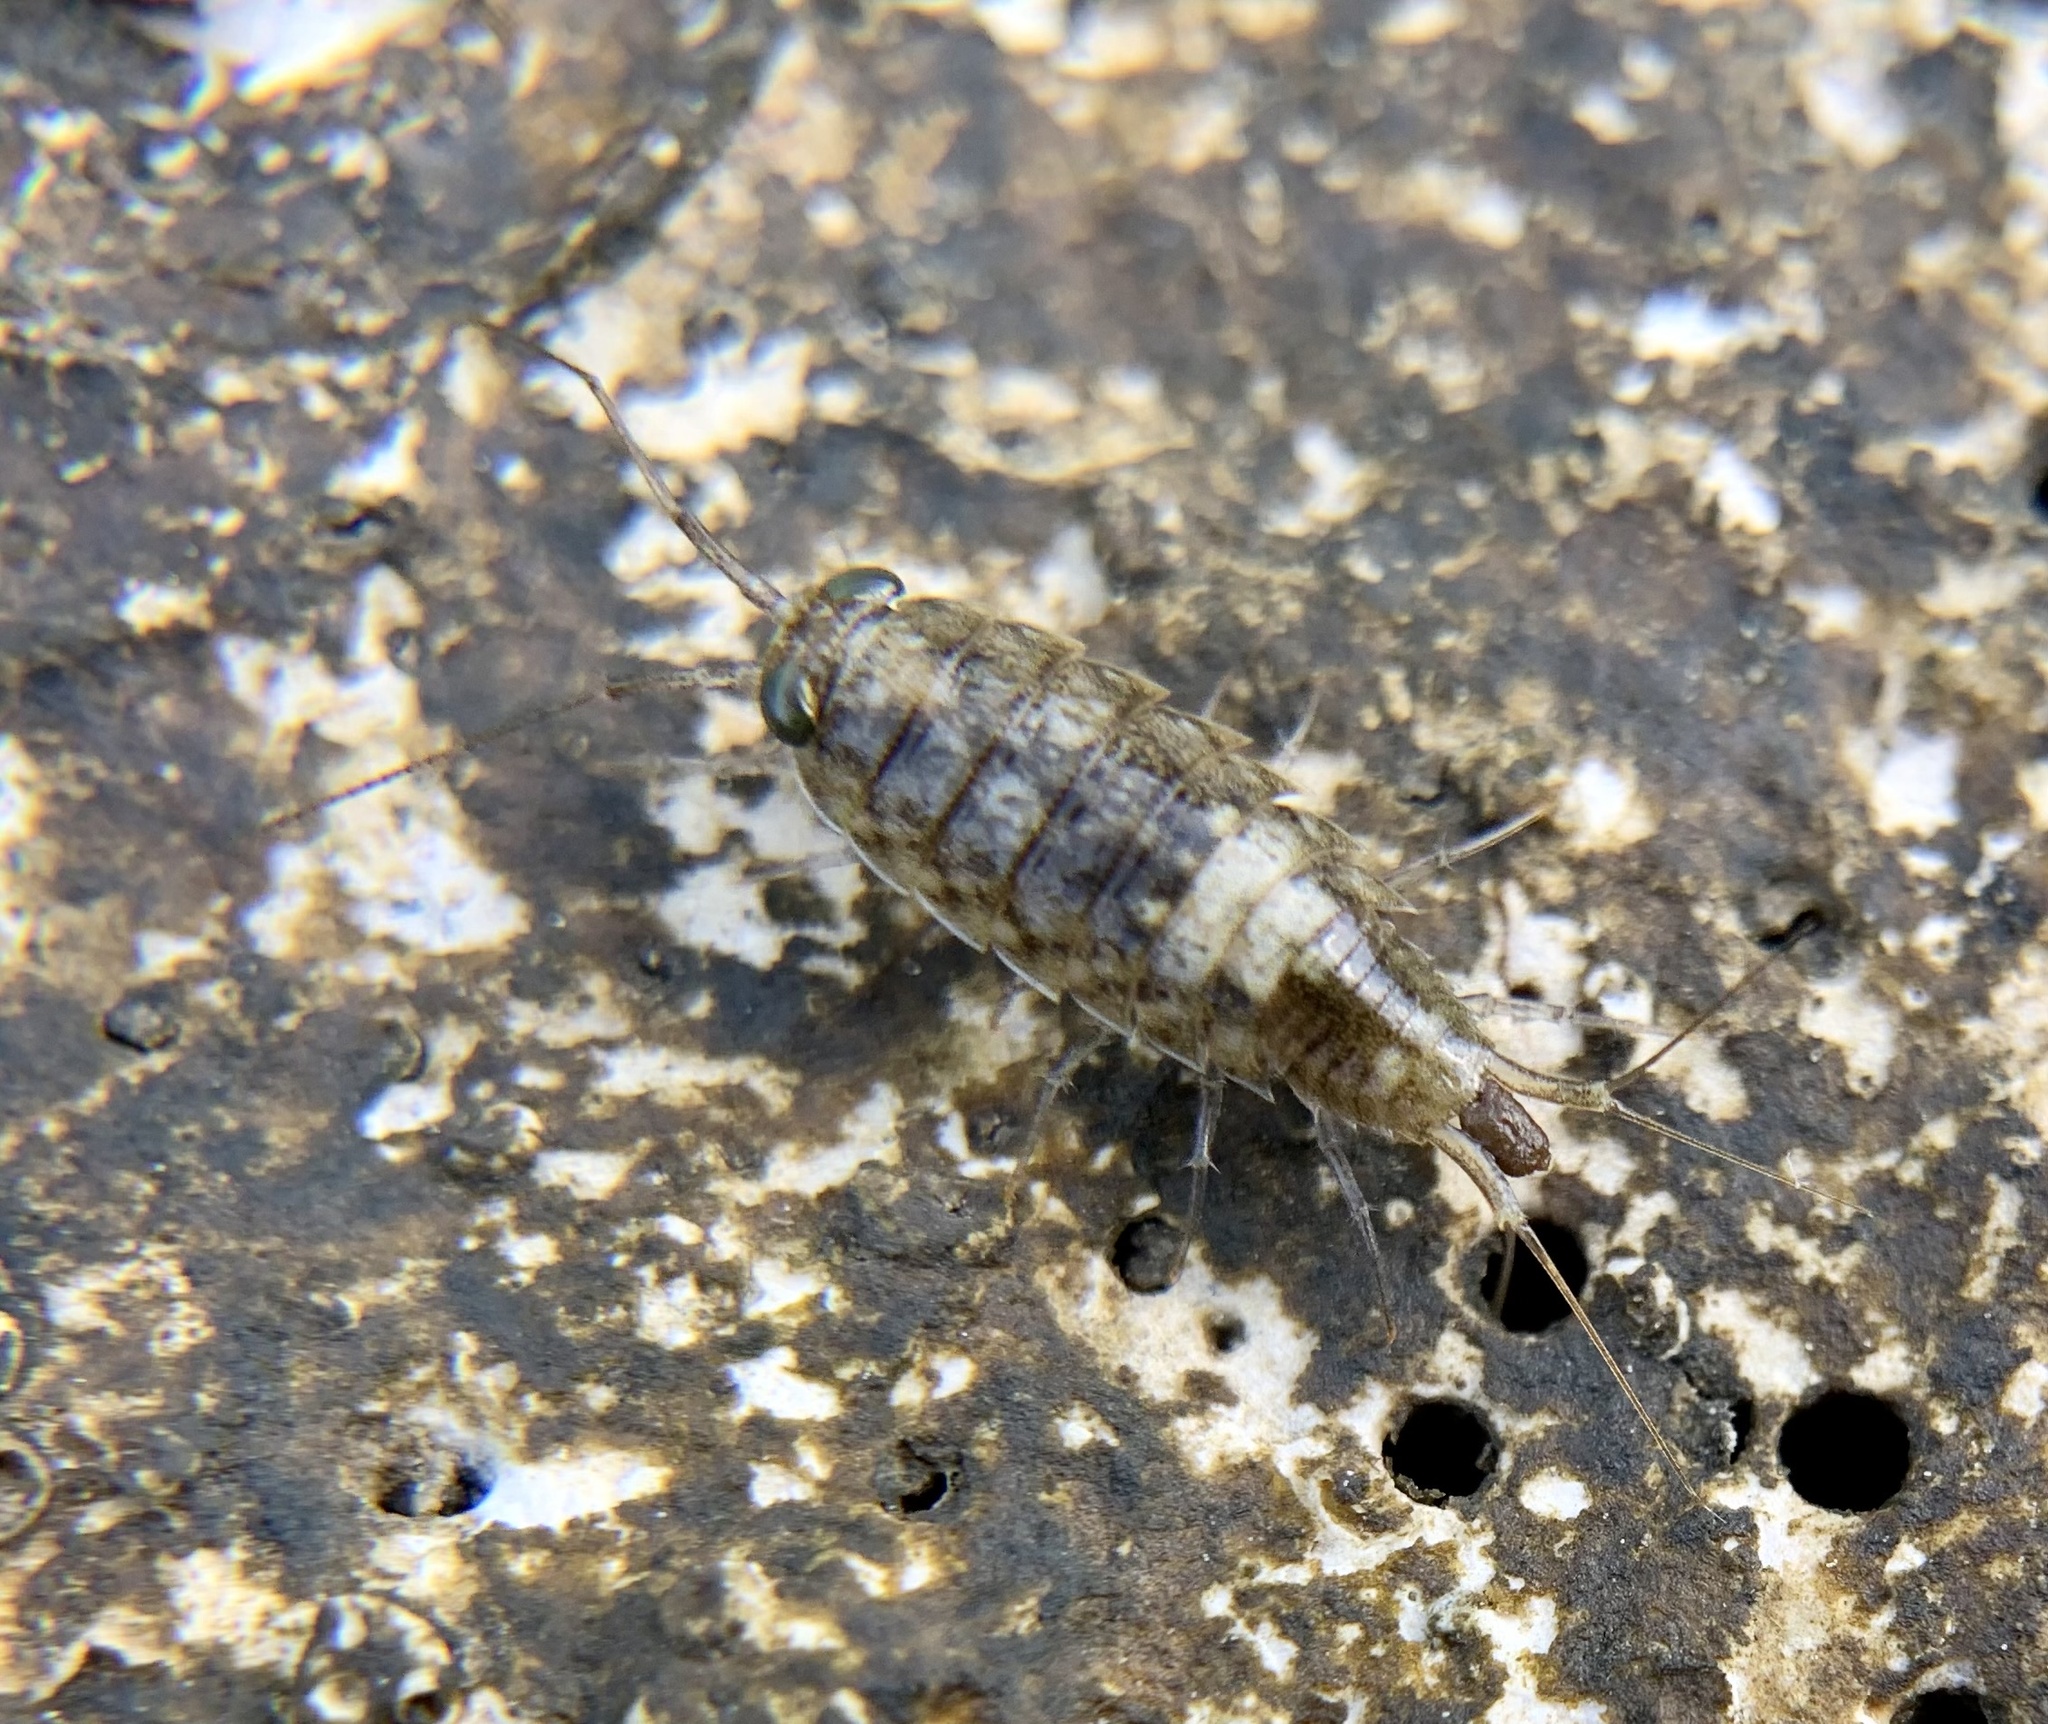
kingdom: Animalia
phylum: Arthropoda
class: Malacostraca
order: Isopoda
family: Ligiidae
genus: Ligia
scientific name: Ligia italica
